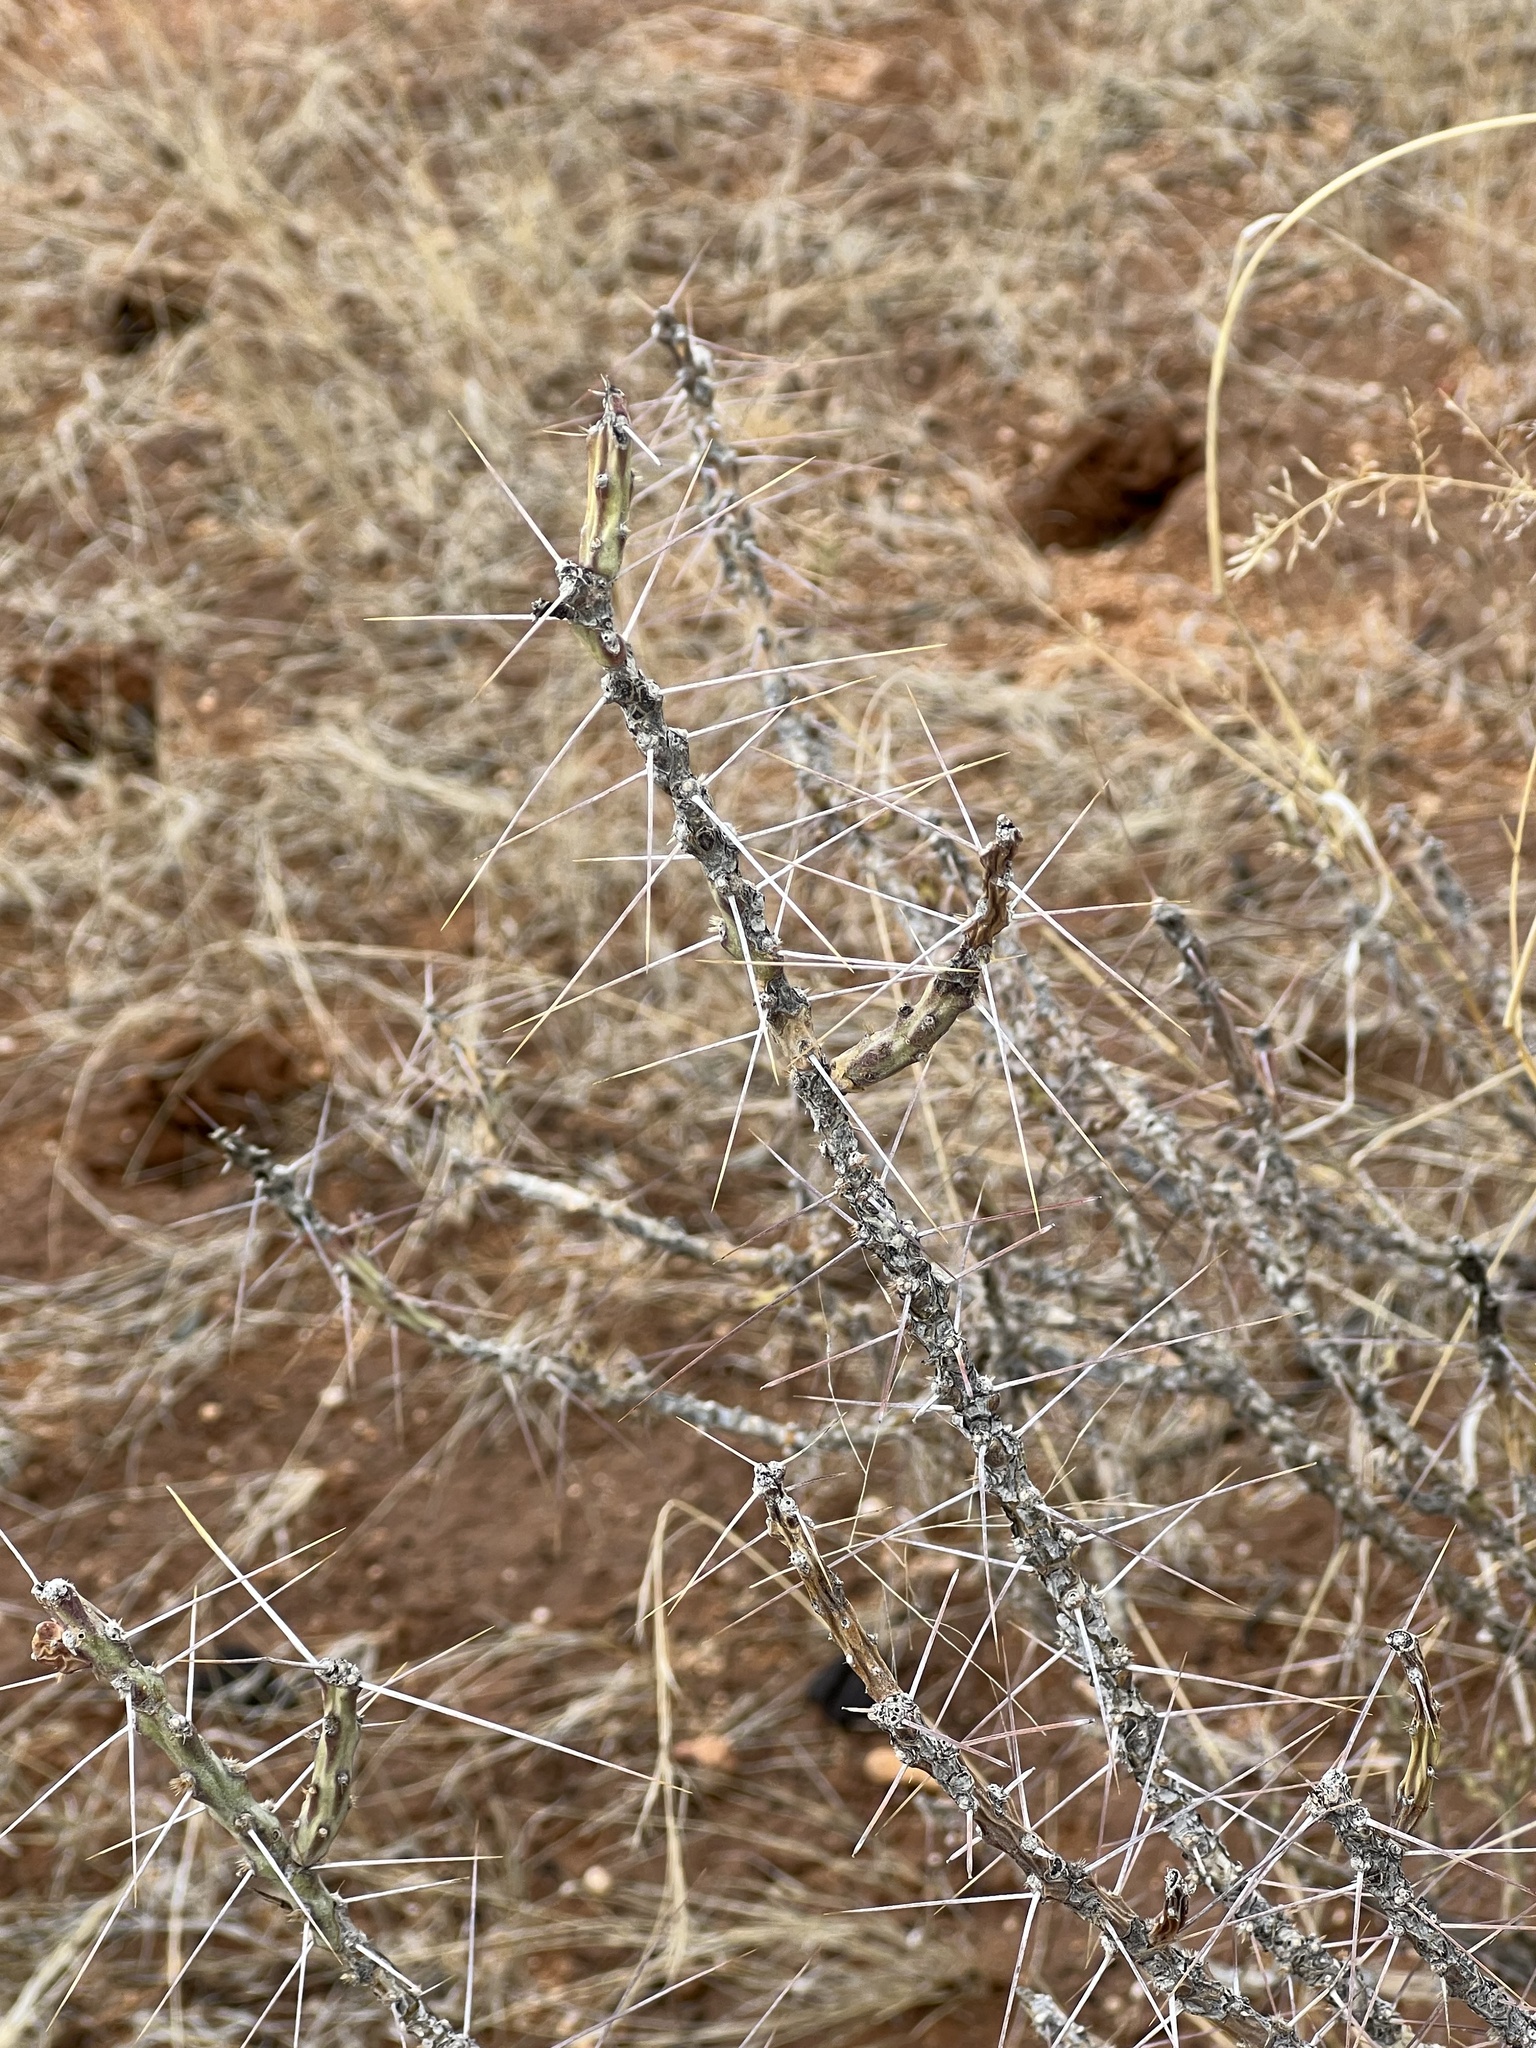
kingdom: Plantae
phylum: Tracheophyta
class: Magnoliopsida
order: Caryophyllales
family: Cactaceae
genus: Cylindropuntia
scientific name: Cylindropuntia leptocaulis
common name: Christmas cactus
